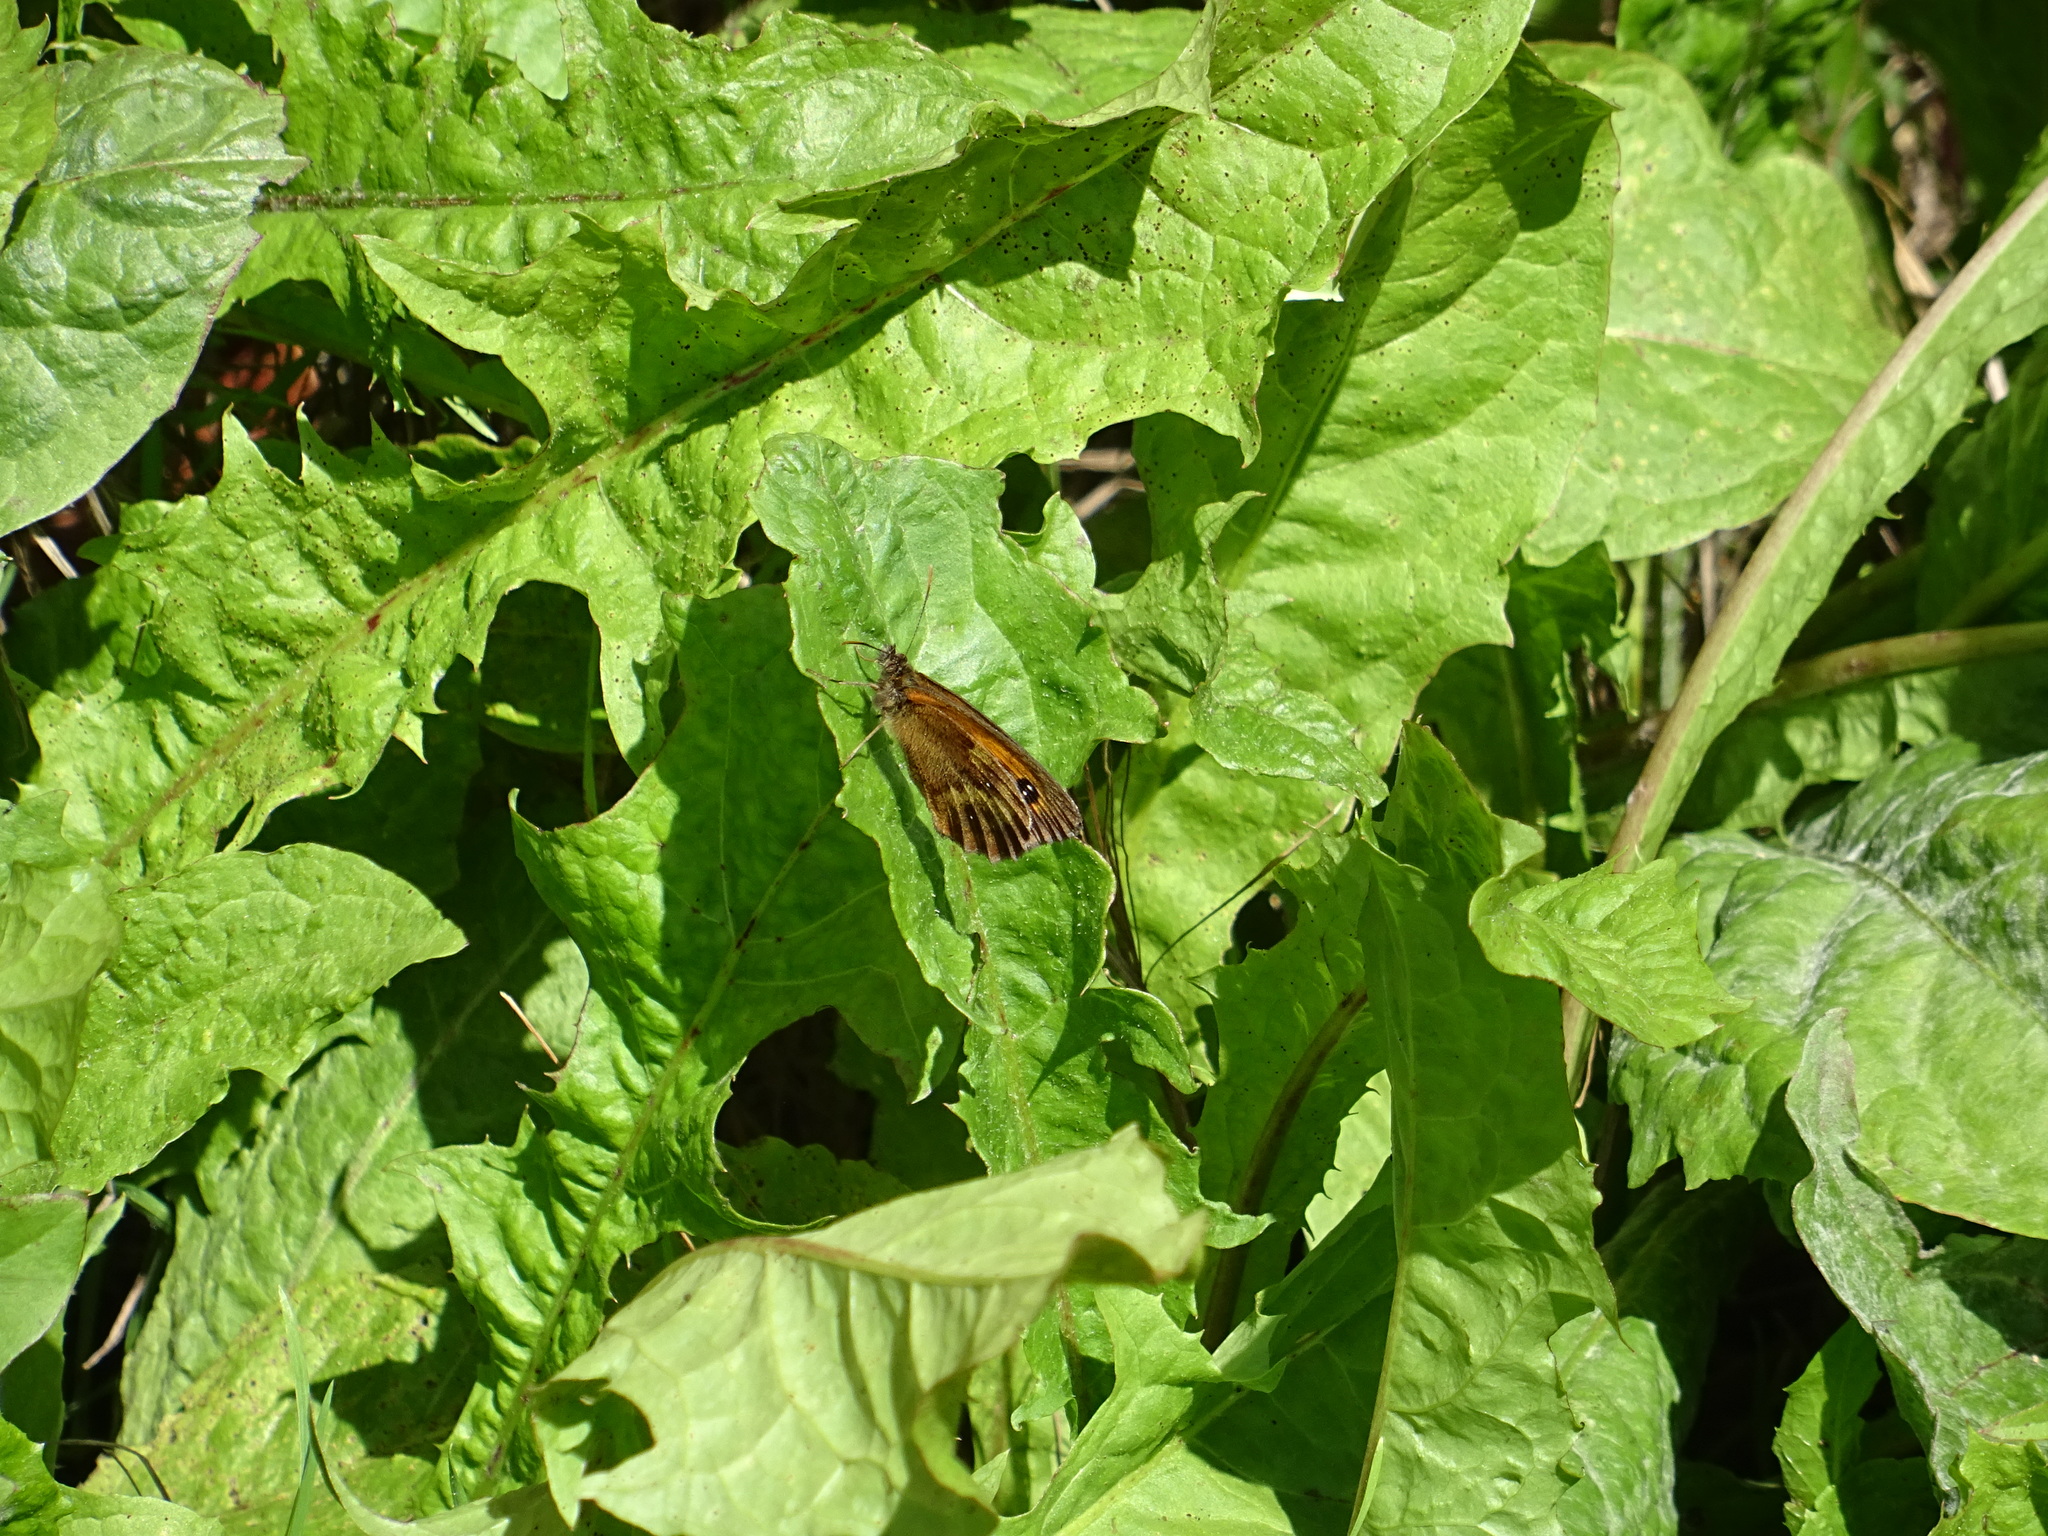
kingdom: Animalia
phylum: Arthropoda
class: Insecta
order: Lepidoptera
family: Nymphalidae
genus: Pyronia
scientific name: Pyronia tithonus
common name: Gatekeeper
